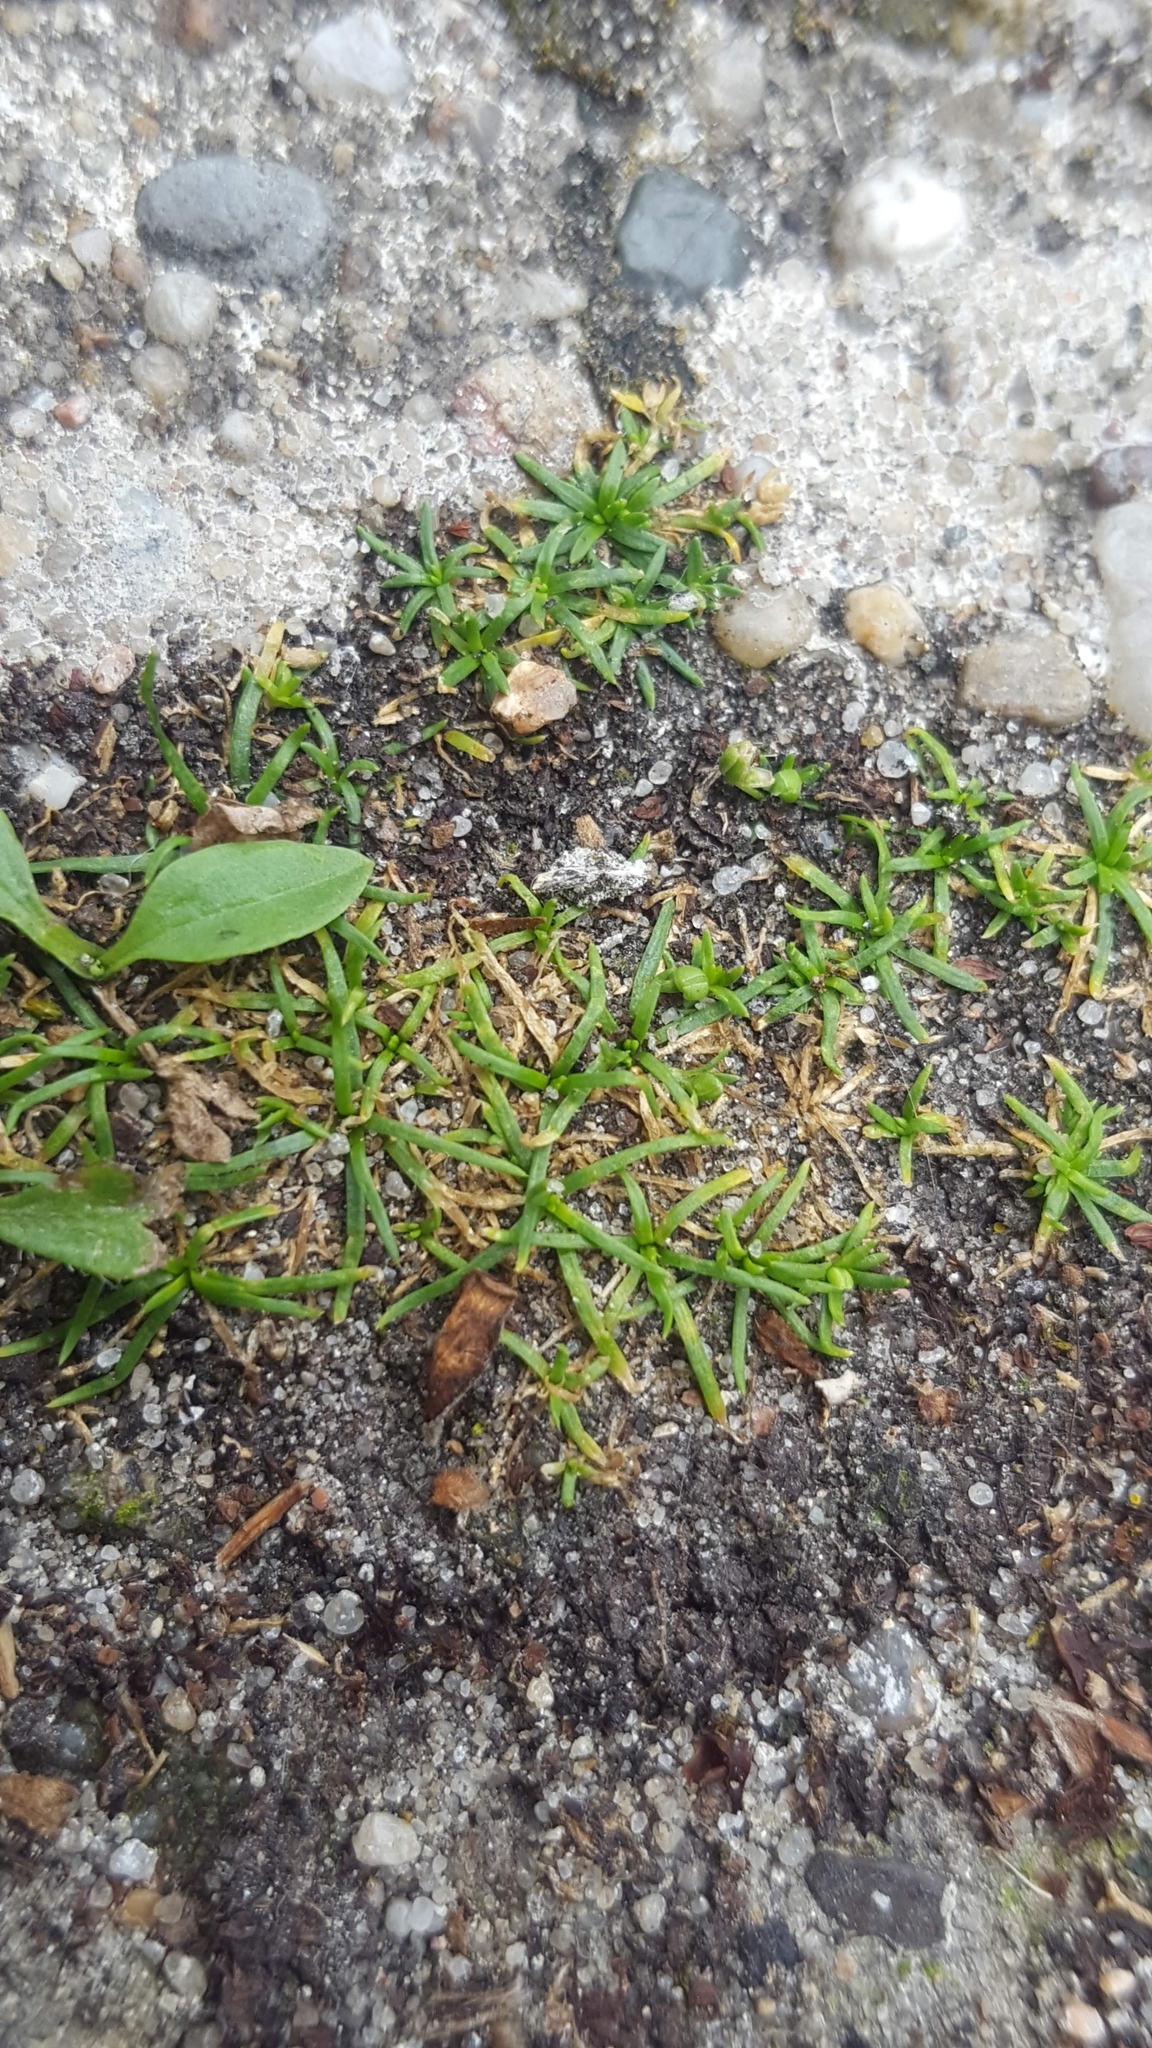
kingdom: Plantae
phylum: Tracheophyta
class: Magnoliopsida
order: Caryophyllales
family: Caryophyllaceae
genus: Sagina
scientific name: Sagina procumbens
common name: Procumbent pearlwort
